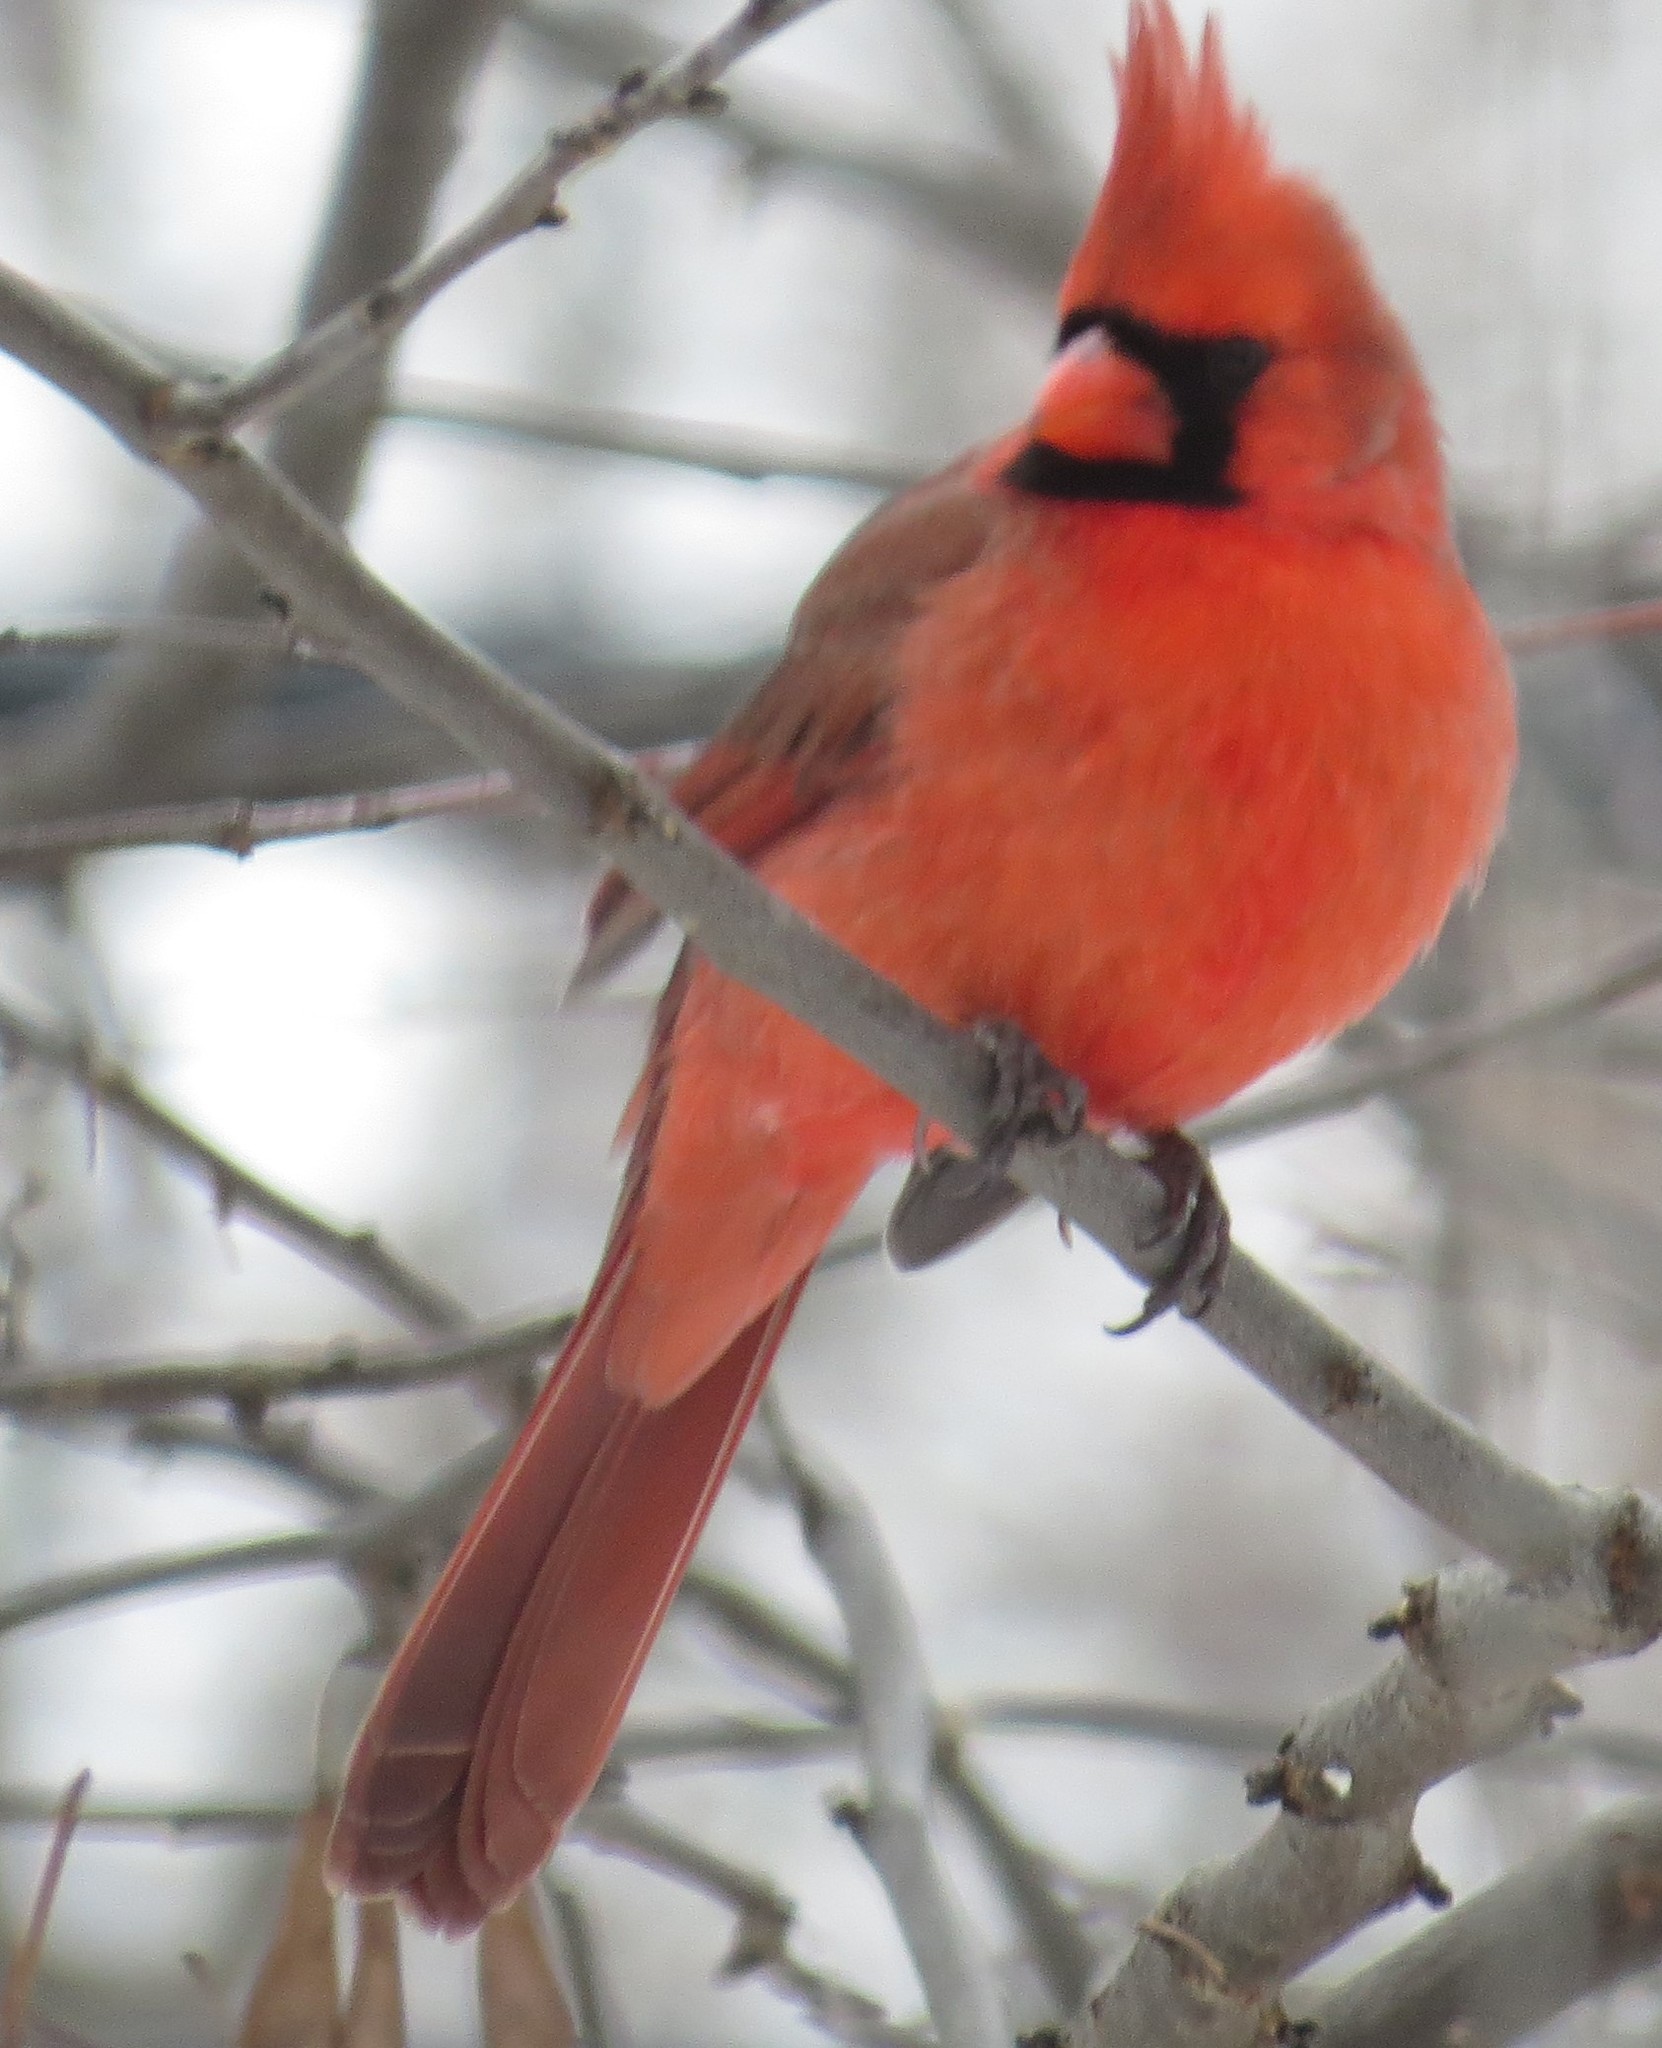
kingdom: Animalia
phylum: Chordata
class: Aves
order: Passeriformes
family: Cardinalidae
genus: Cardinalis
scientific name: Cardinalis cardinalis
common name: Northern cardinal
